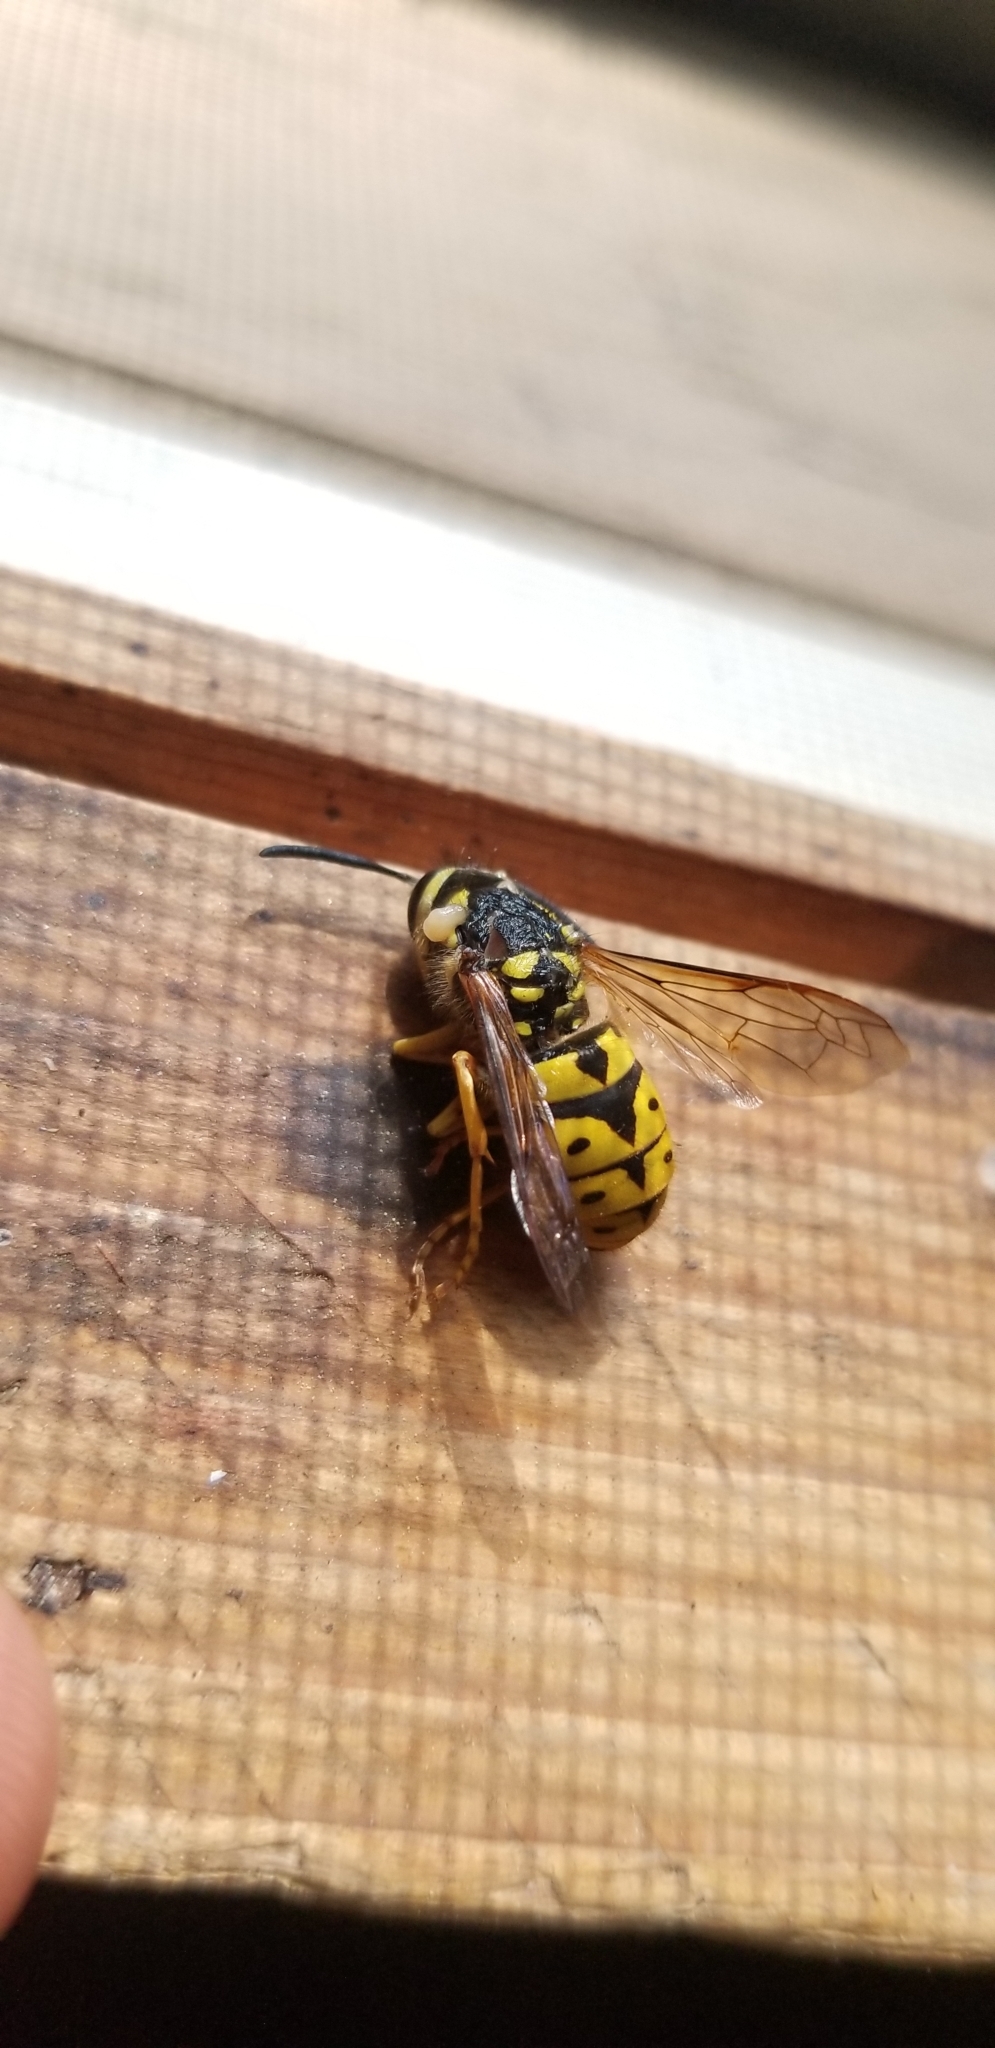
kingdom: Animalia
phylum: Arthropoda
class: Insecta
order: Hymenoptera
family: Vespidae
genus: Vespula
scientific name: Vespula pensylvanica
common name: Western yellowjacket
